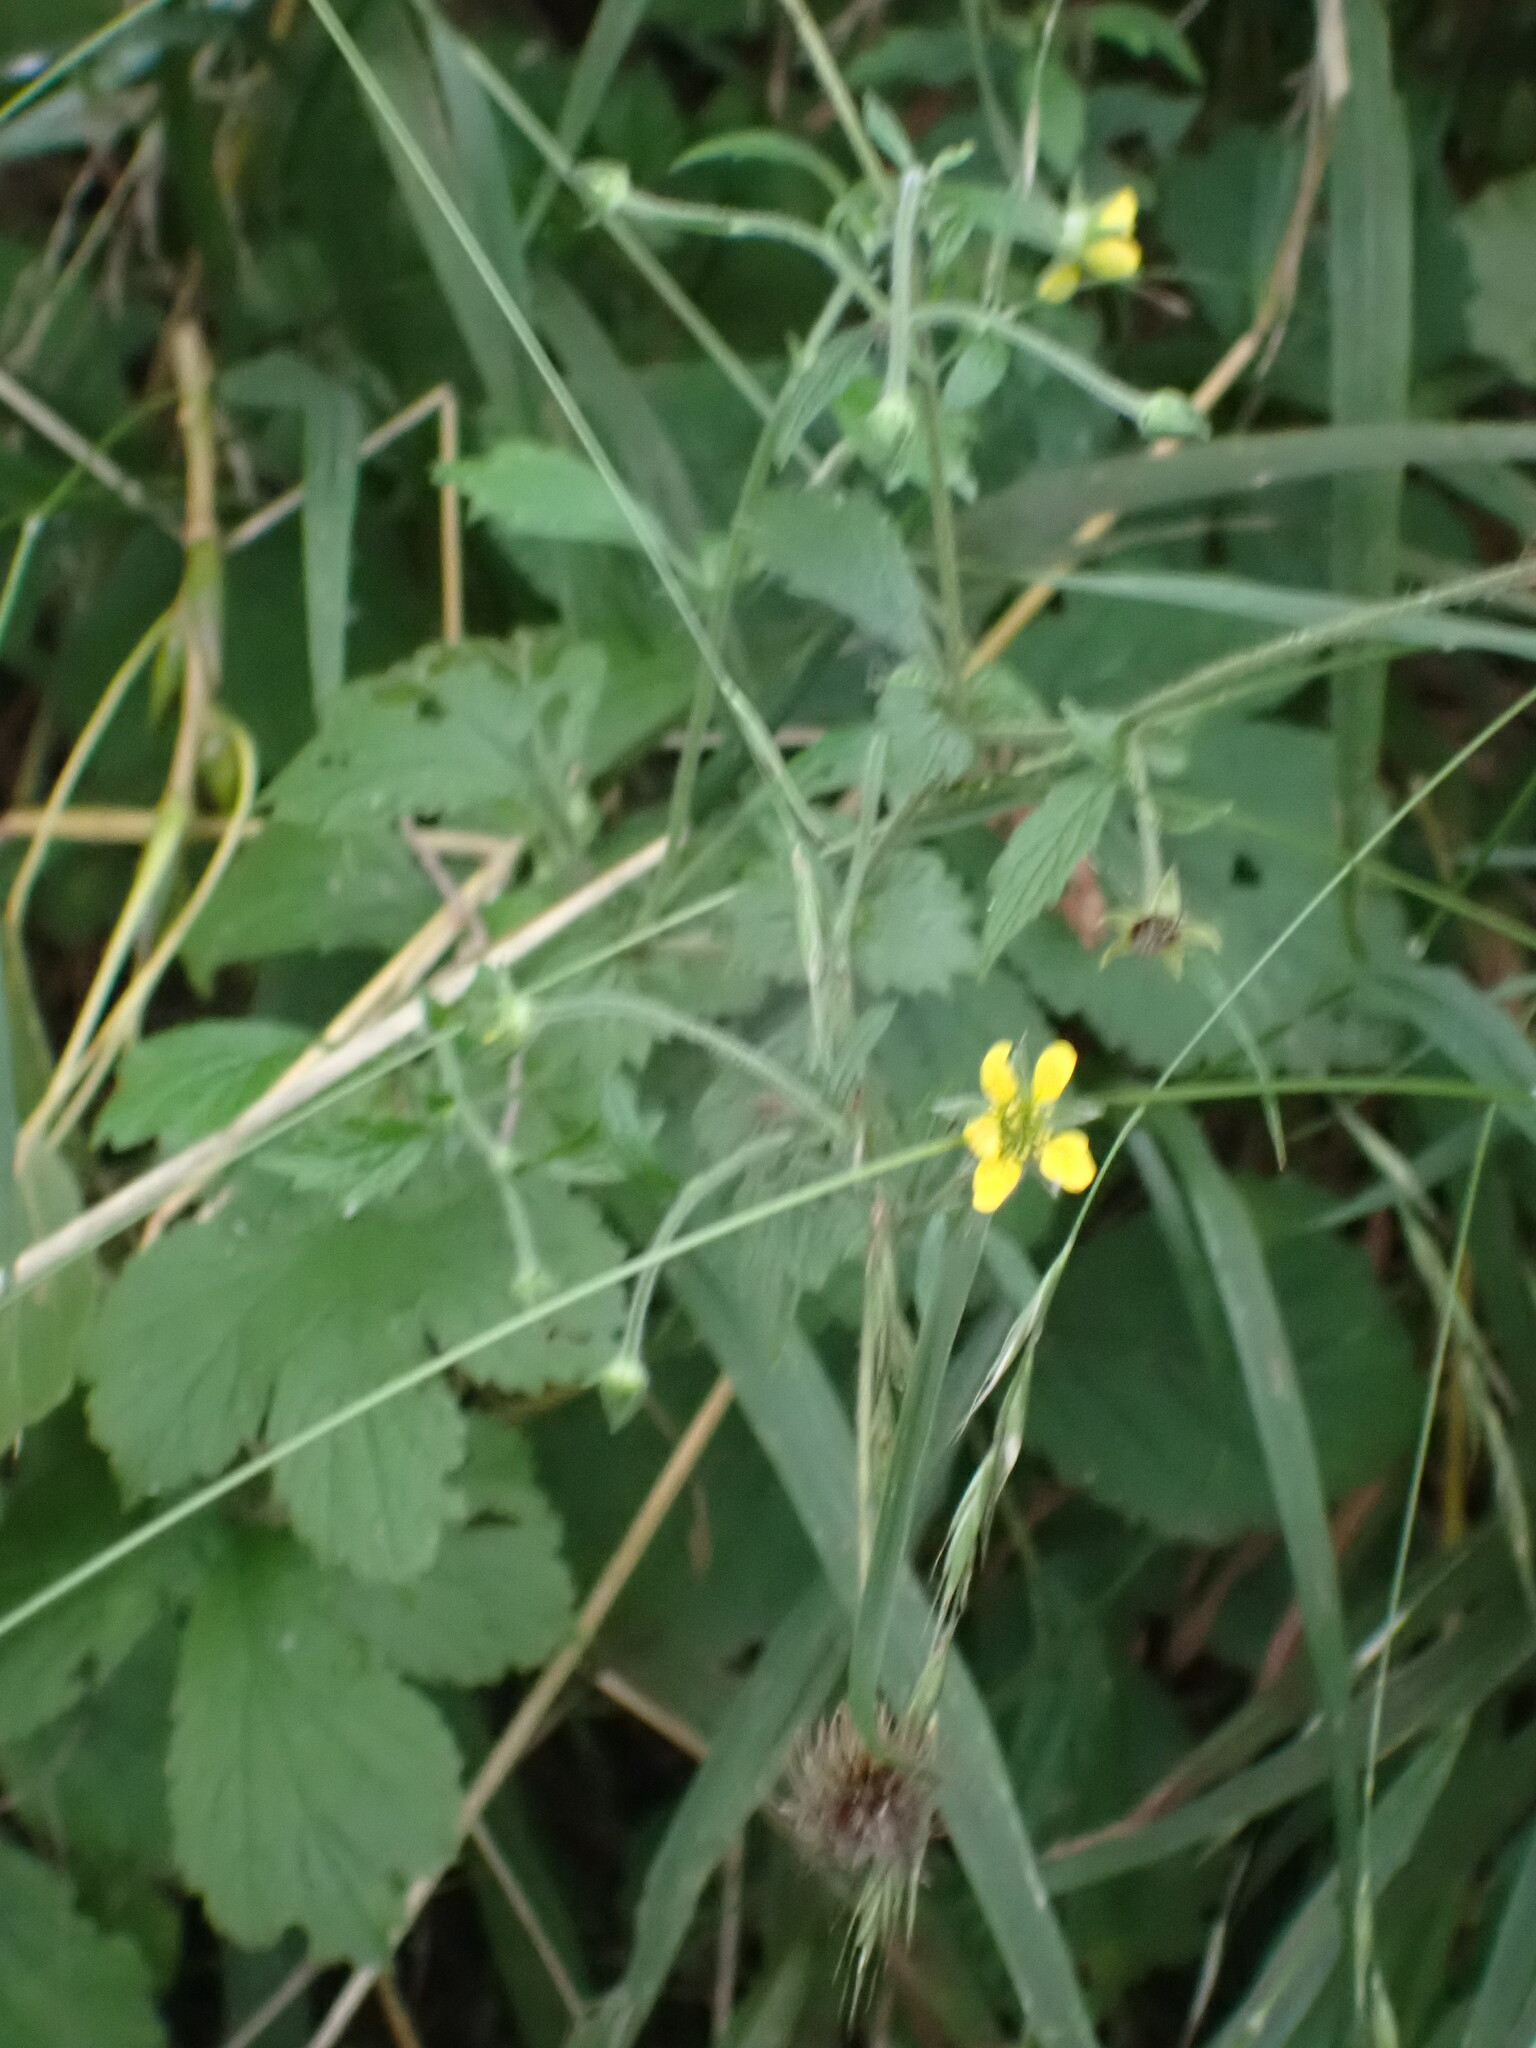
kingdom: Plantae
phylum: Tracheophyta
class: Magnoliopsida
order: Rosales
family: Rosaceae
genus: Geum
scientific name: Geum urbanum
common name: Wood avens
